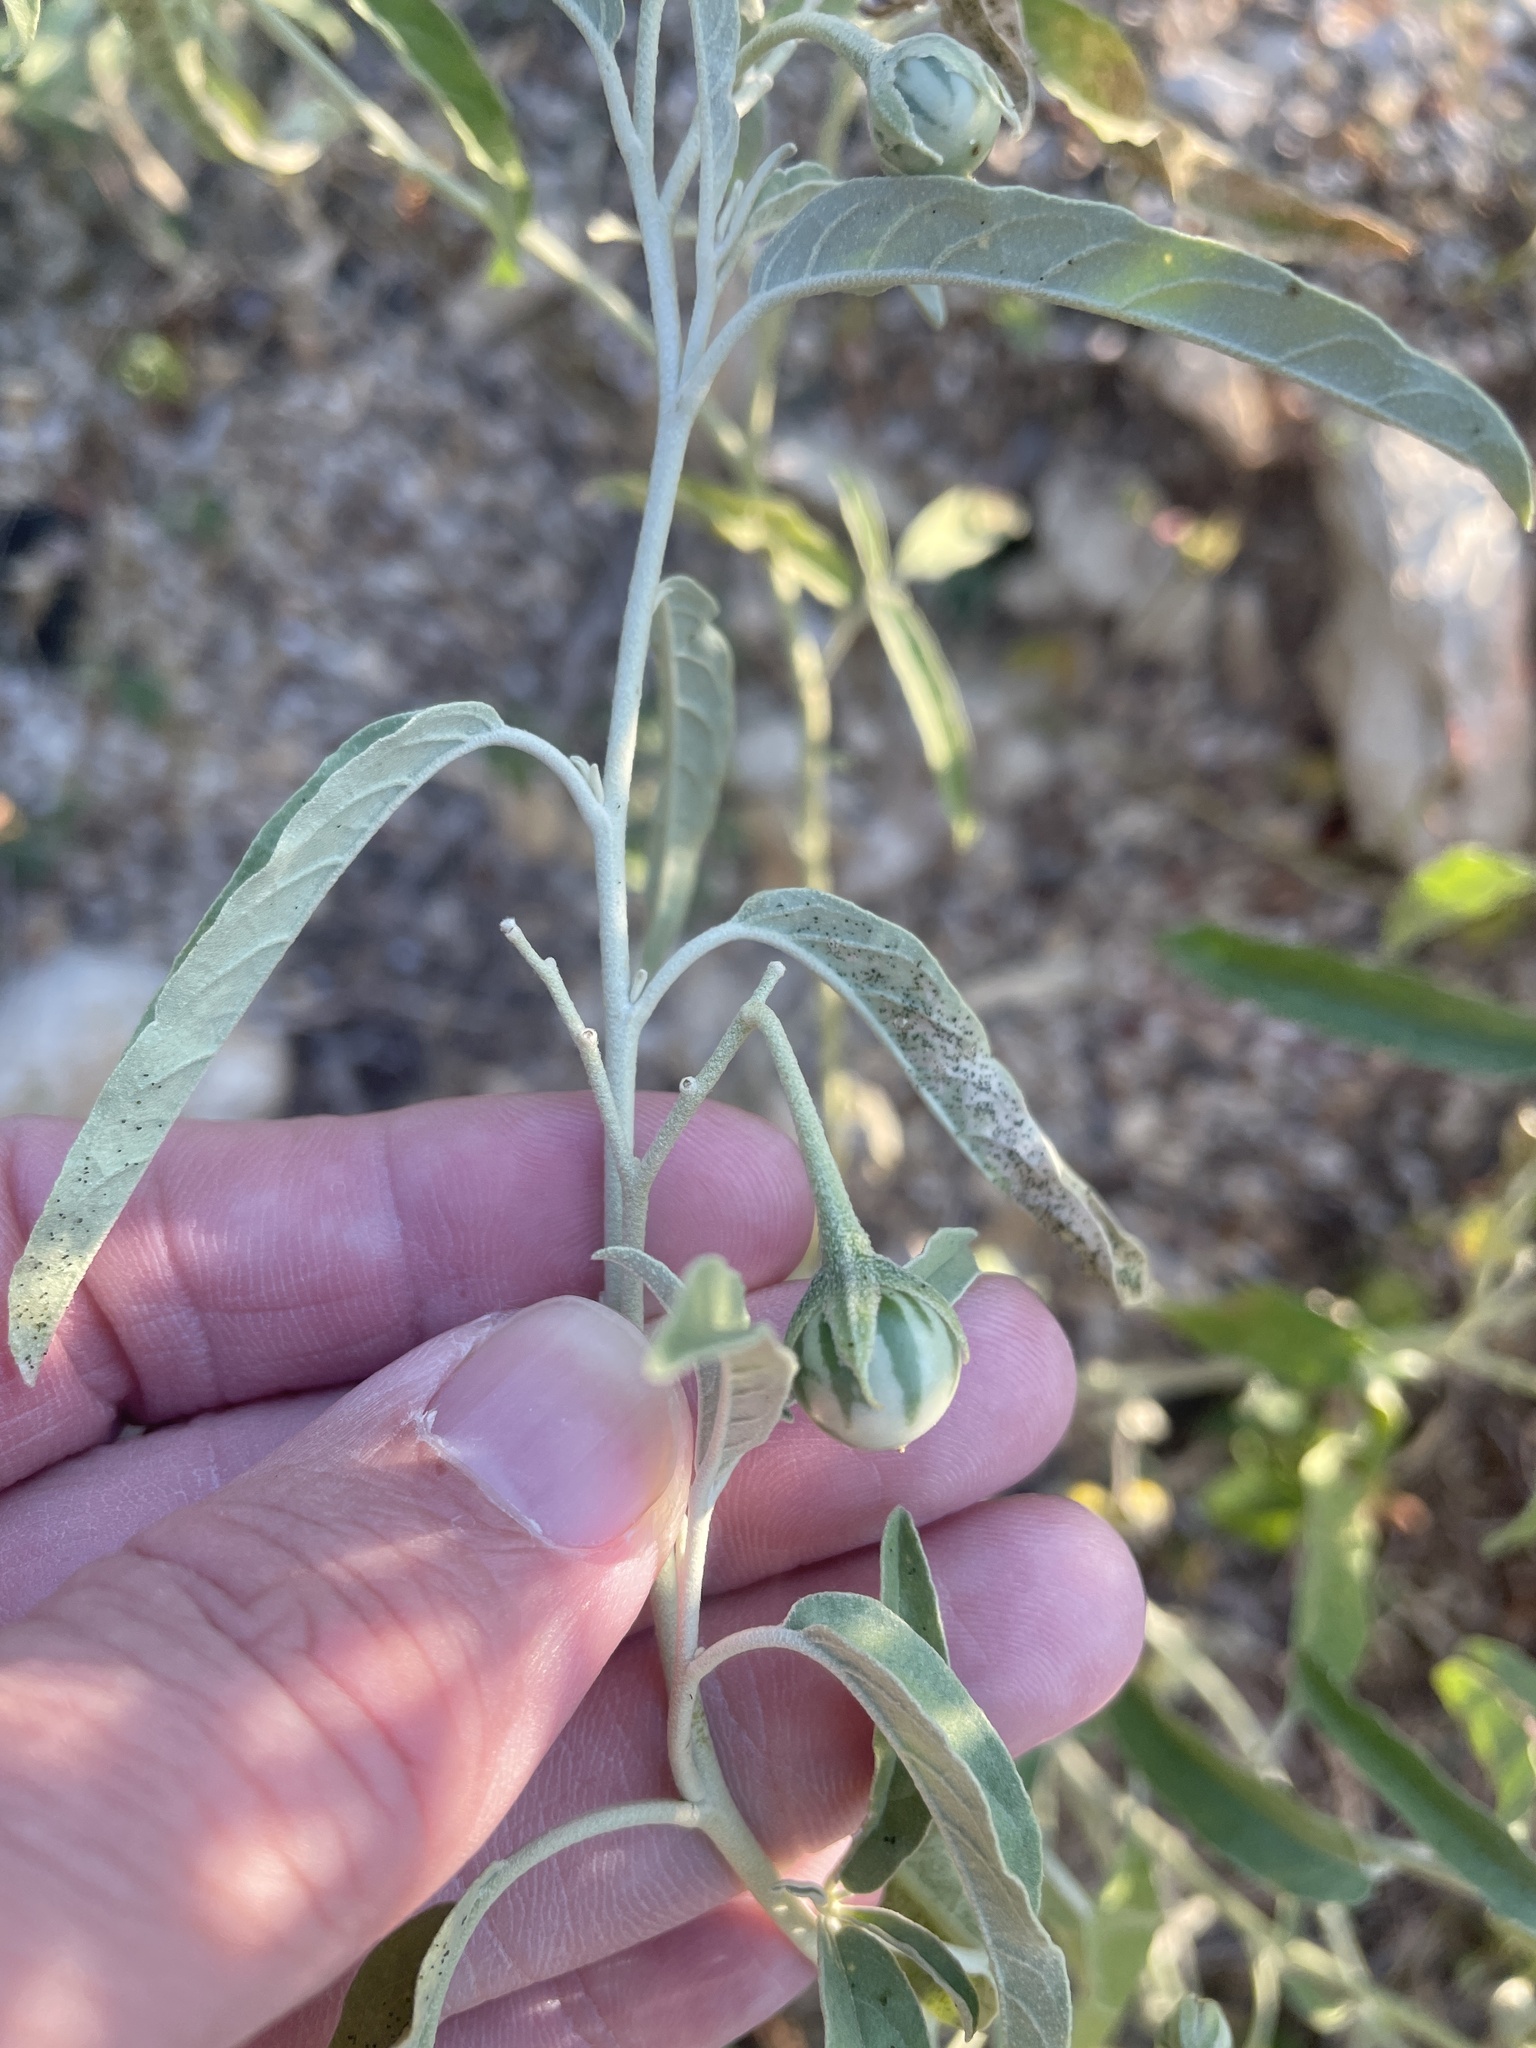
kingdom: Plantae
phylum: Tracheophyta
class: Magnoliopsida
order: Solanales
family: Solanaceae
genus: Solanum
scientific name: Solanum elaeagnifolium
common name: Silverleaf nightshade
